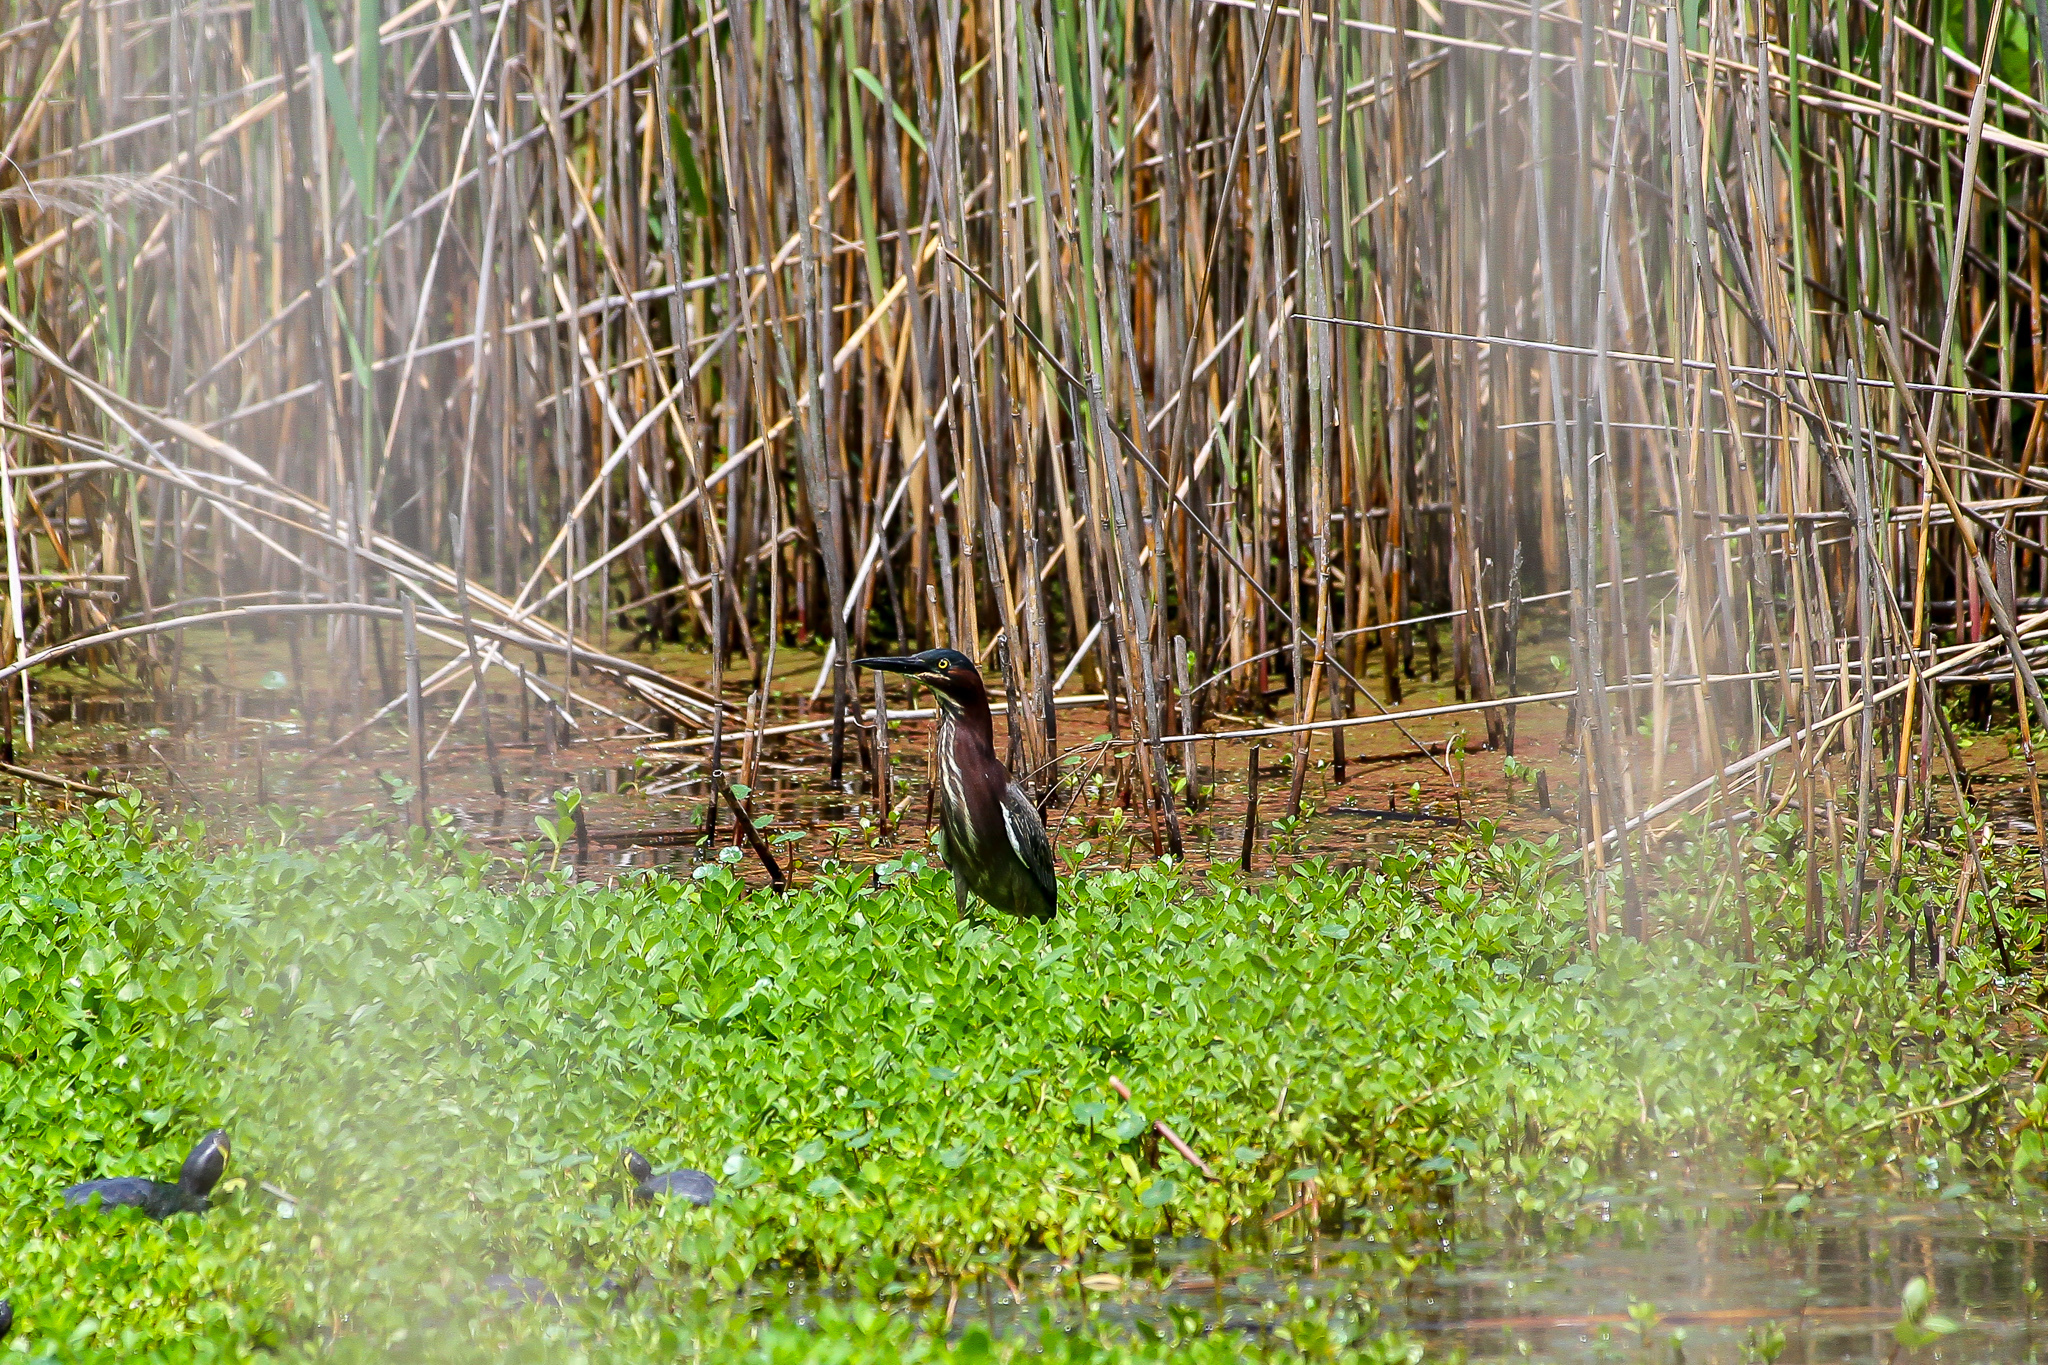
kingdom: Animalia
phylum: Chordata
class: Aves
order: Pelecaniformes
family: Ardeidae
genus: Butorides
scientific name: Butorides virescens
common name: Green heron
